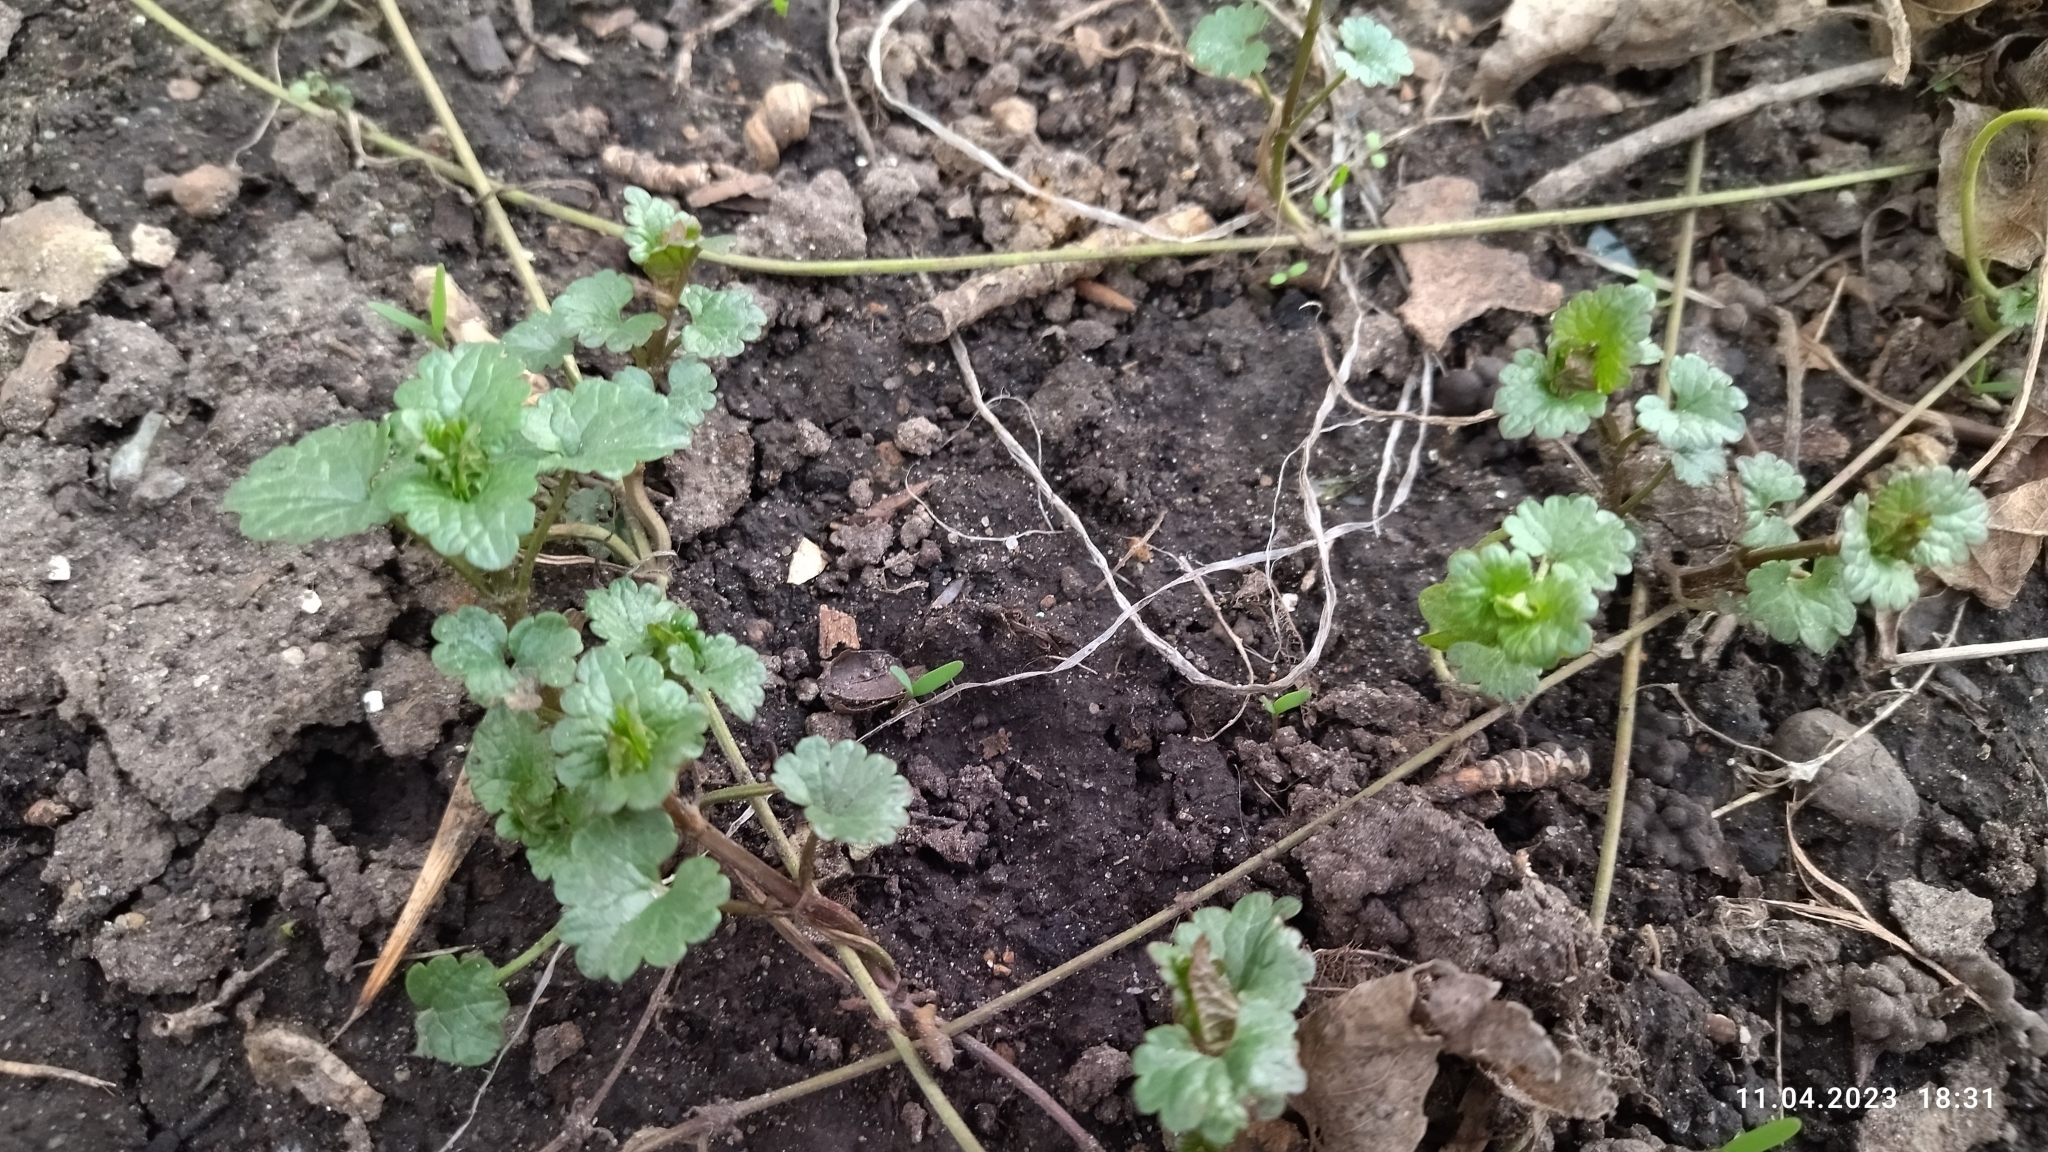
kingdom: Plantae
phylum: Tracheophyta
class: Magnoliopsida
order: Lamiales
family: Lamiaceae
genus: Glechoma
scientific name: Glechoma hederacea
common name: Ground ivy
